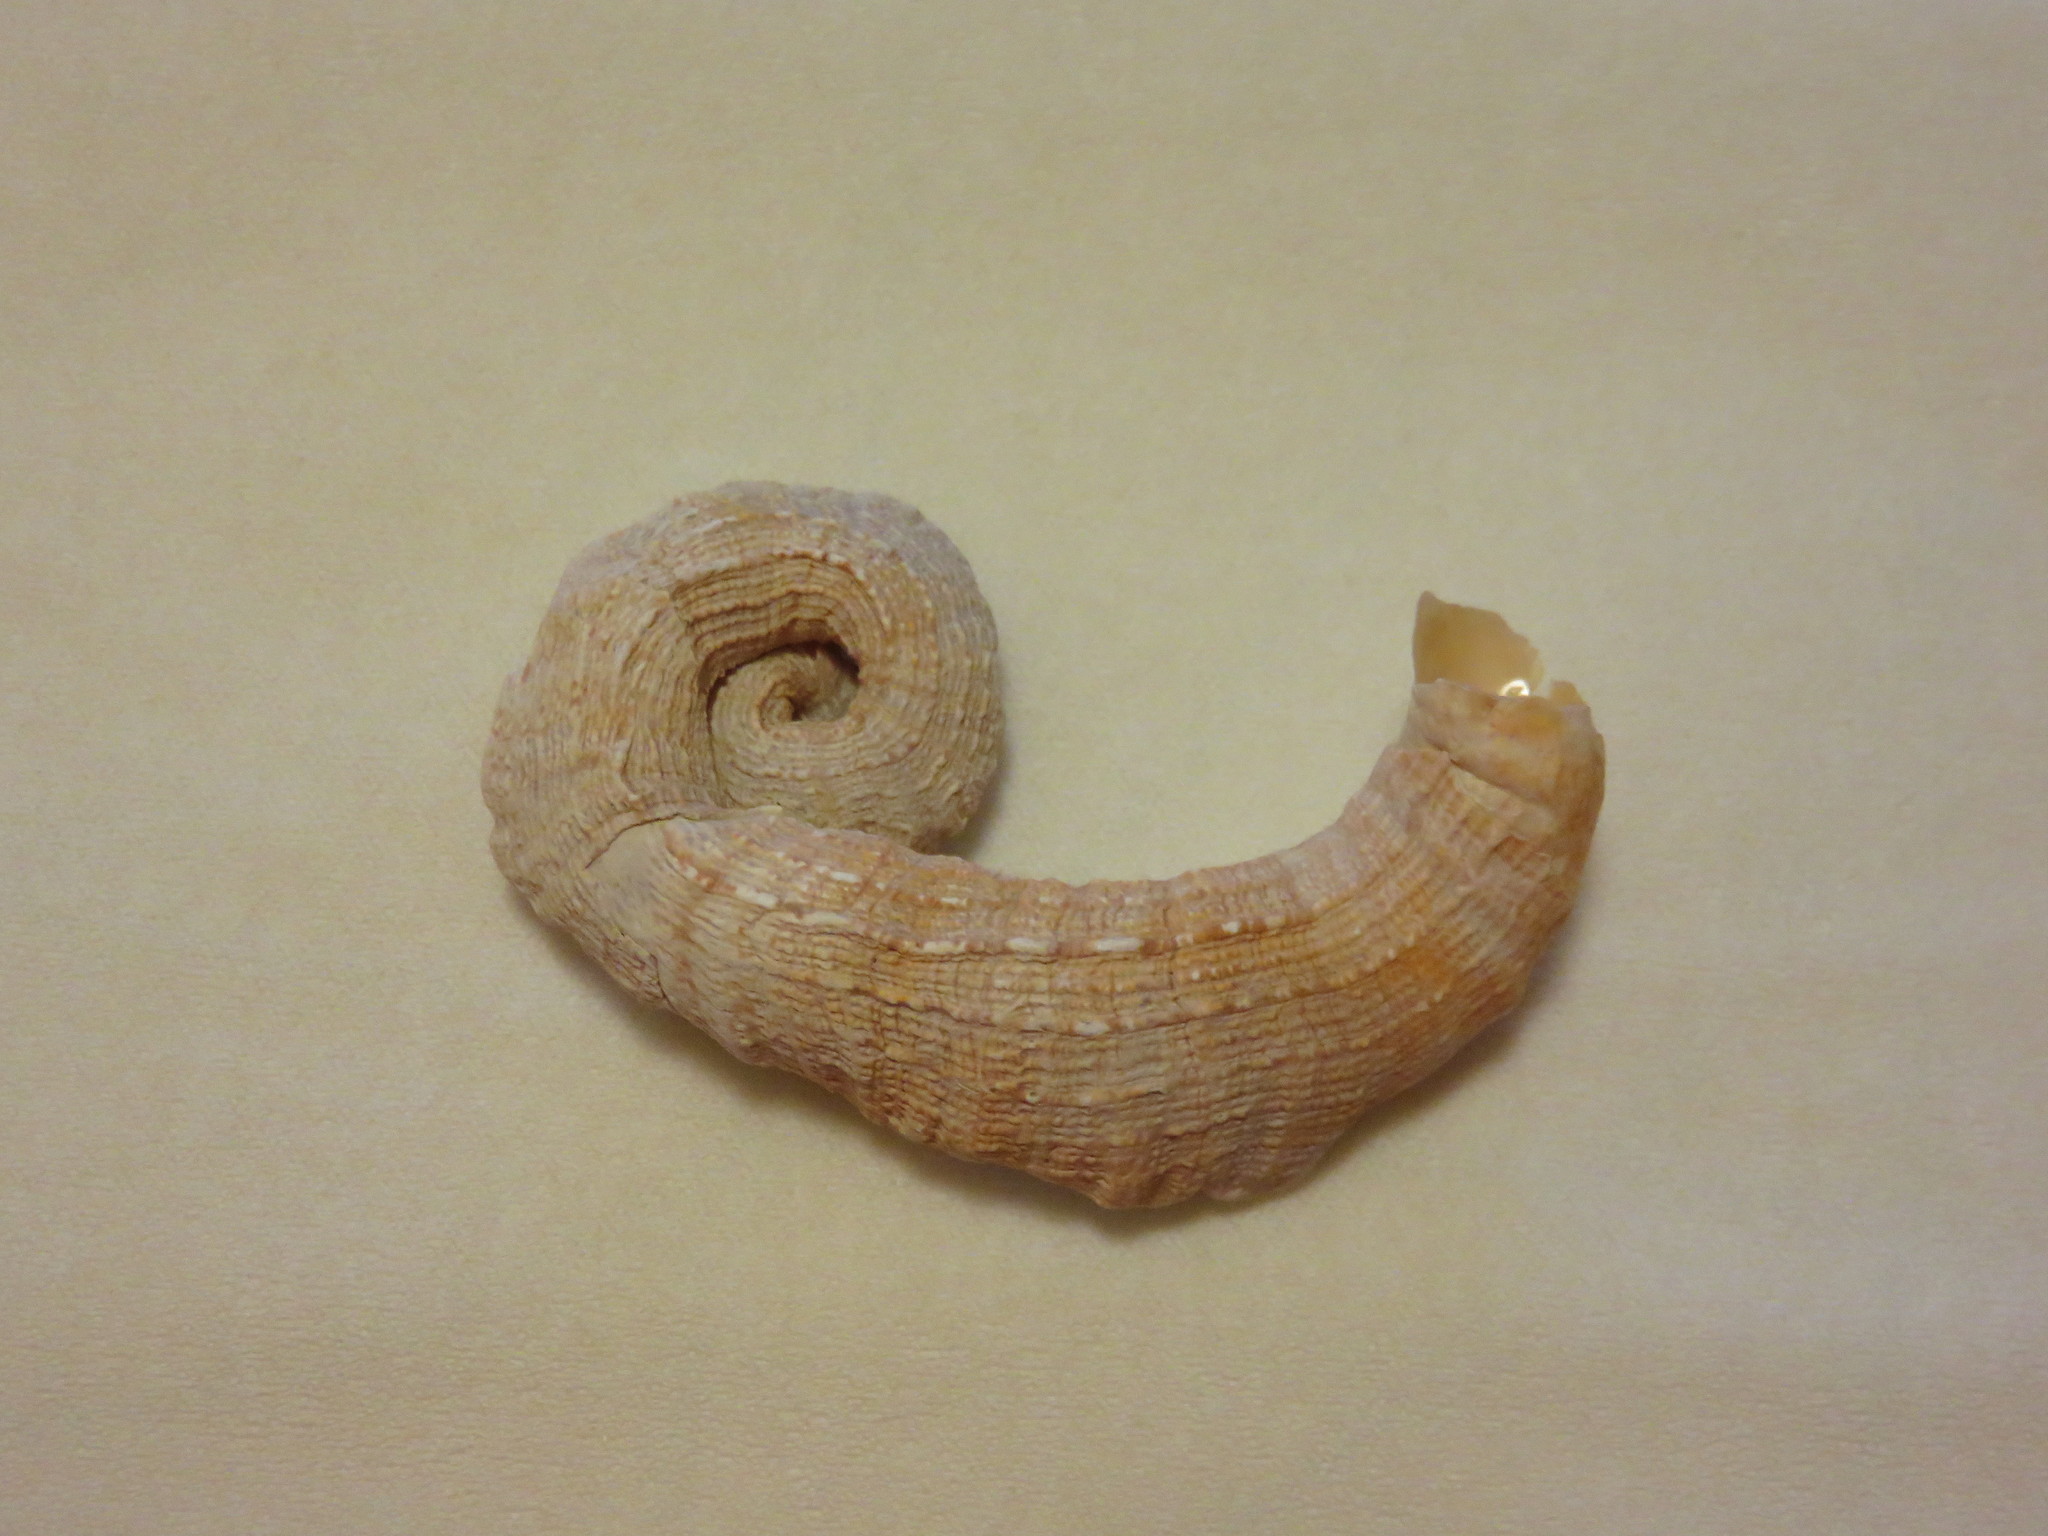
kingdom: Animalia
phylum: Mollusca
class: Gastropoda
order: Littorinimorpha
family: Vermetidae
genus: Thylacodes
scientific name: Thylacodes adamsii
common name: Scaly worm shell
